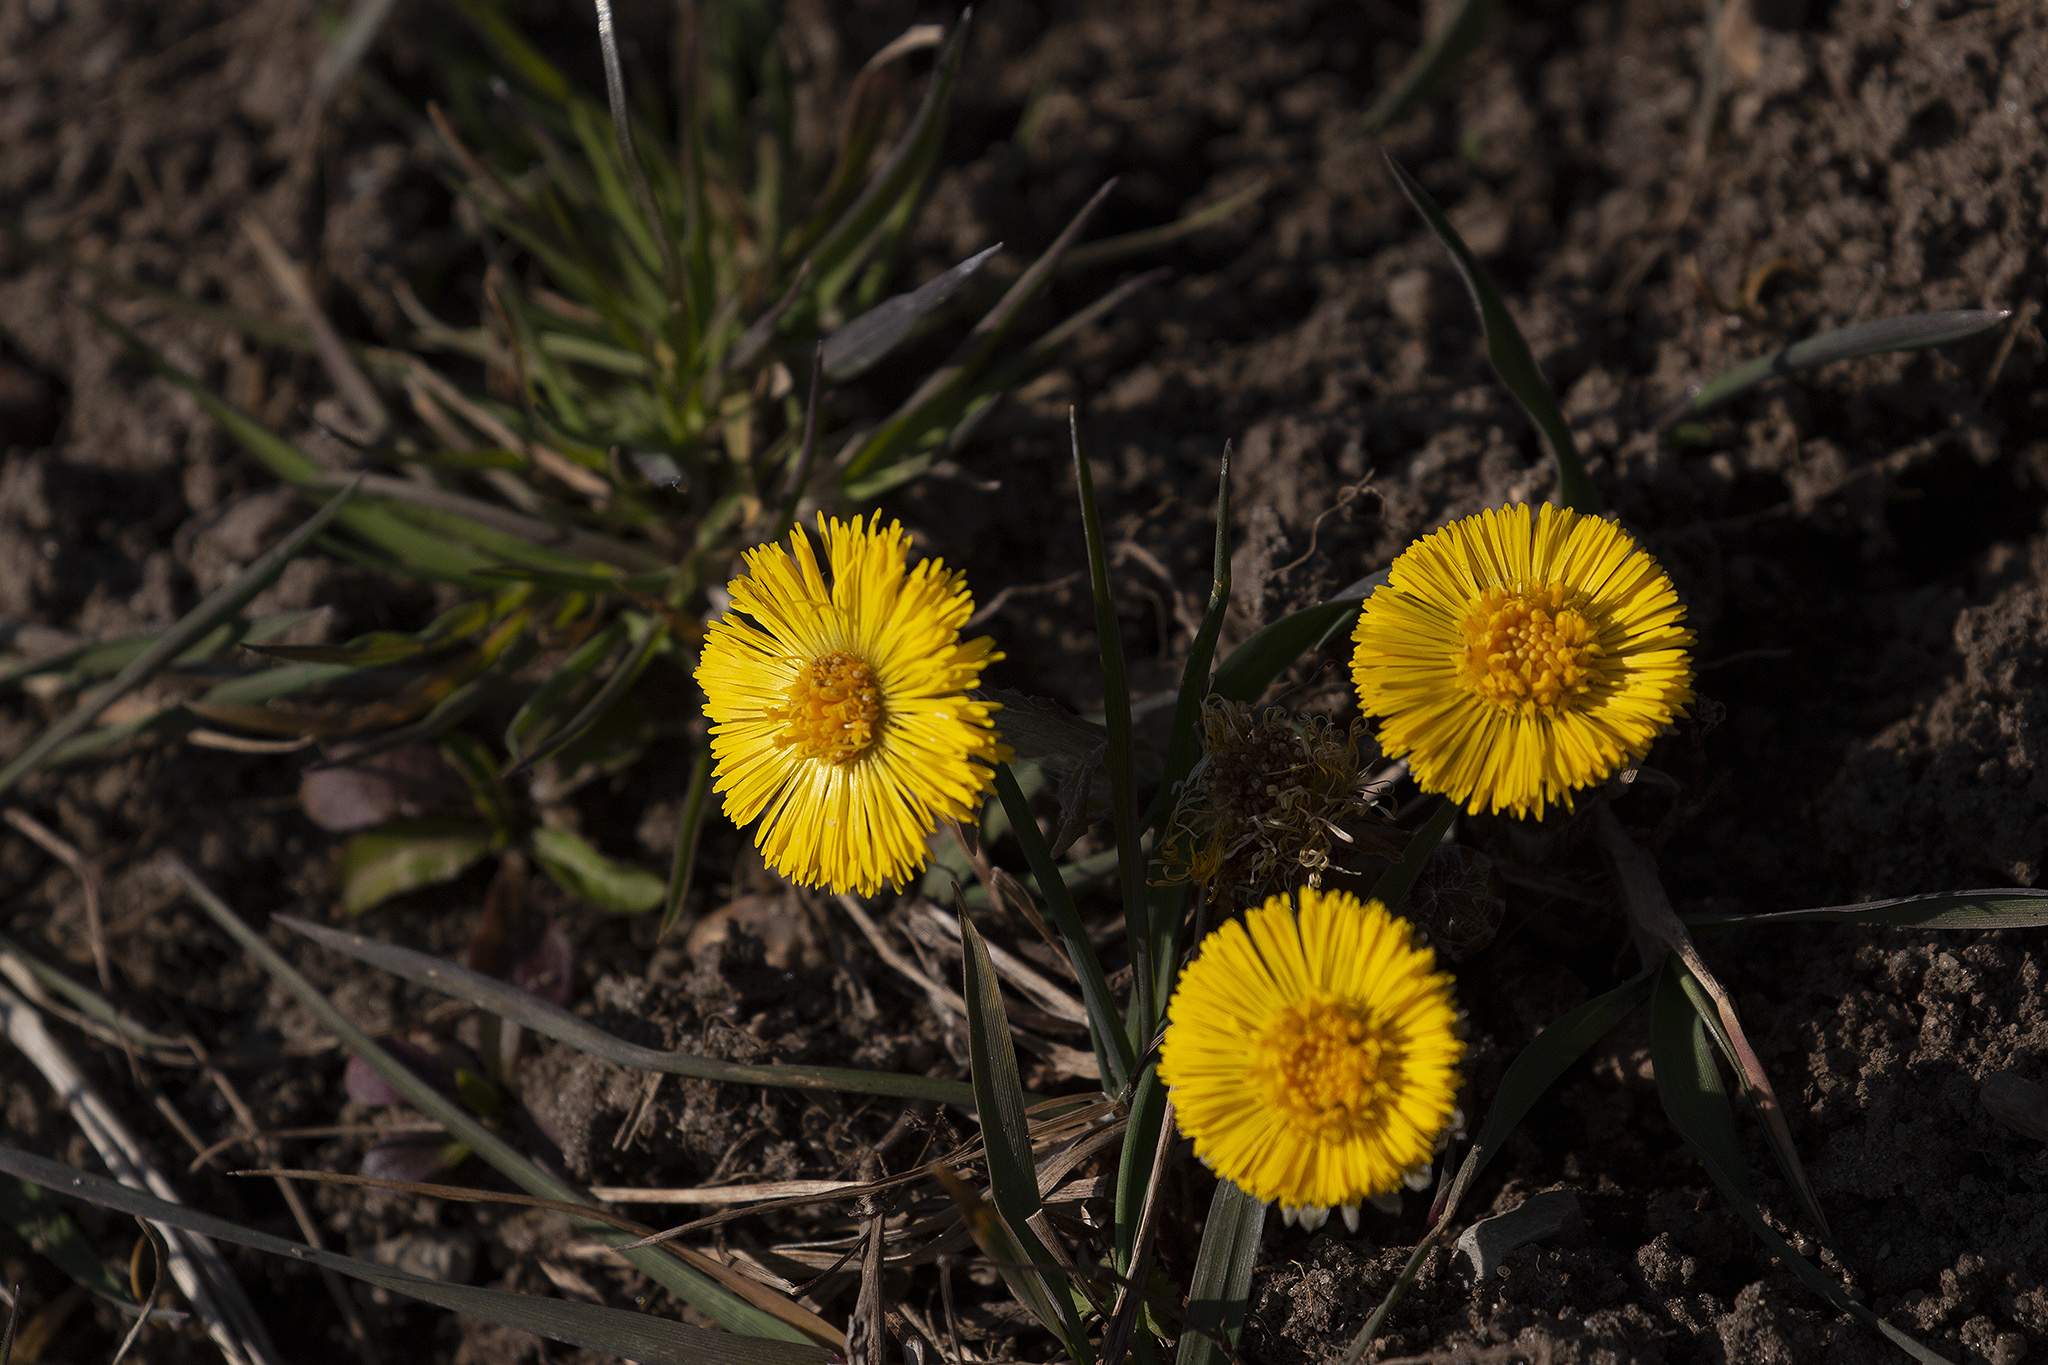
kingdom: Plantae
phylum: Tracheophyta
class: Magnoliopsida
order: Asterales
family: Asteraceae
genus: Tussilago
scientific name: Tussilago farfara
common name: Coltsfoot
